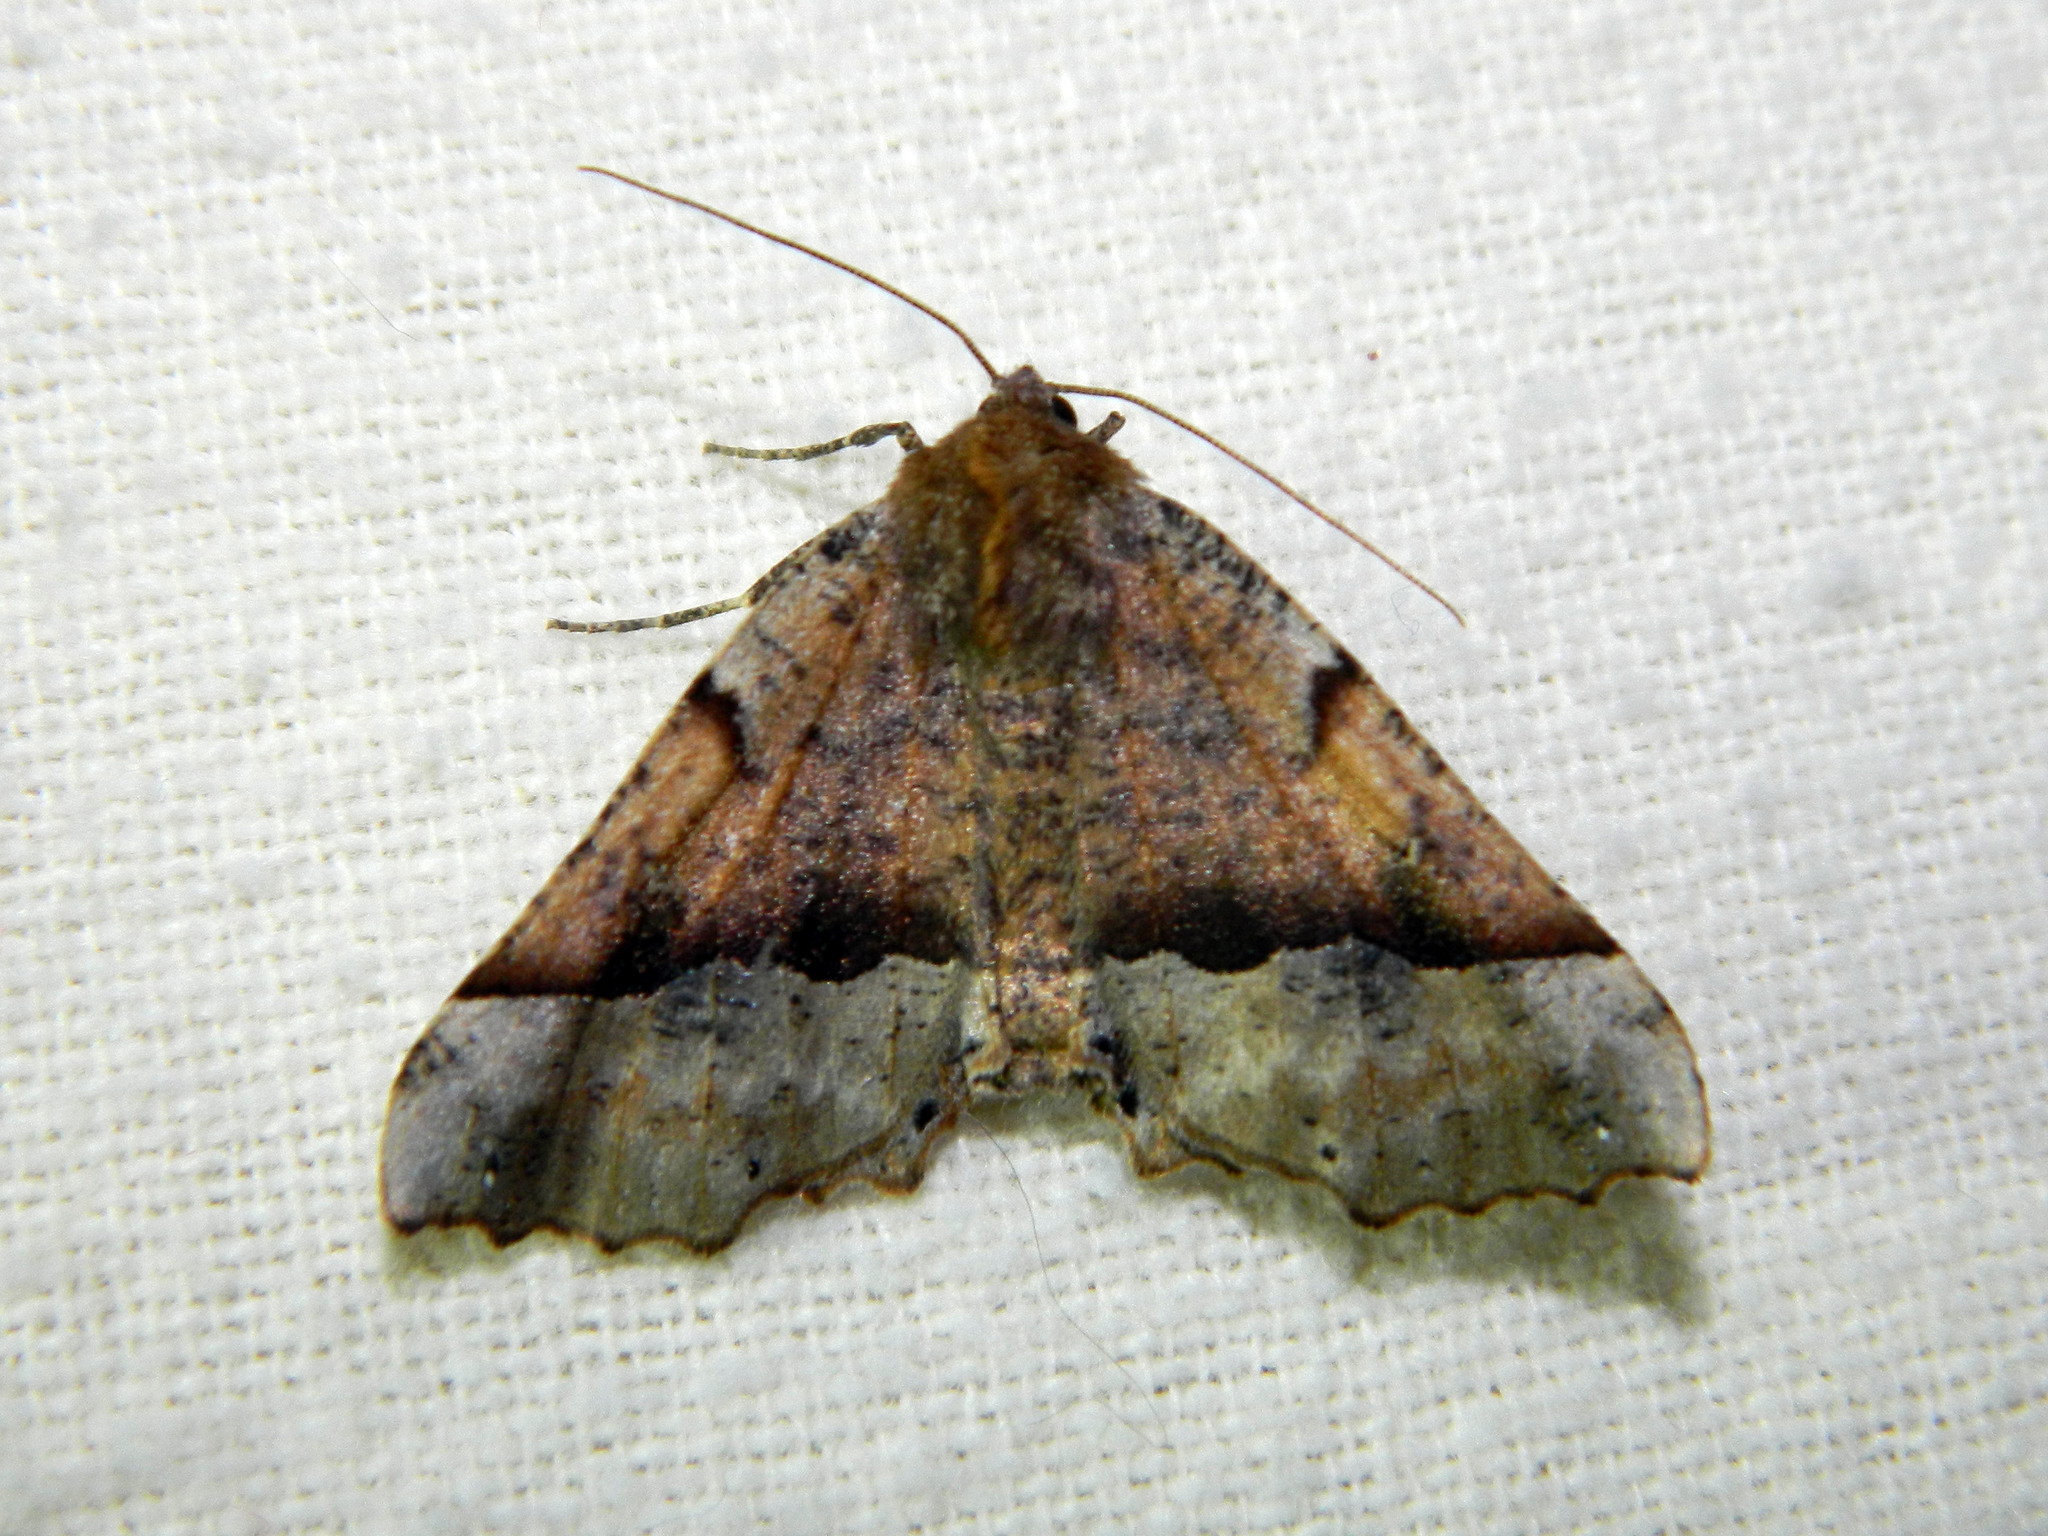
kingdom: Animalia
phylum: Arthropoda
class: Insecta
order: Lepidoptera
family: Geometridae
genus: Pero
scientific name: Pero morrisonaria
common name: Morrison's pero
